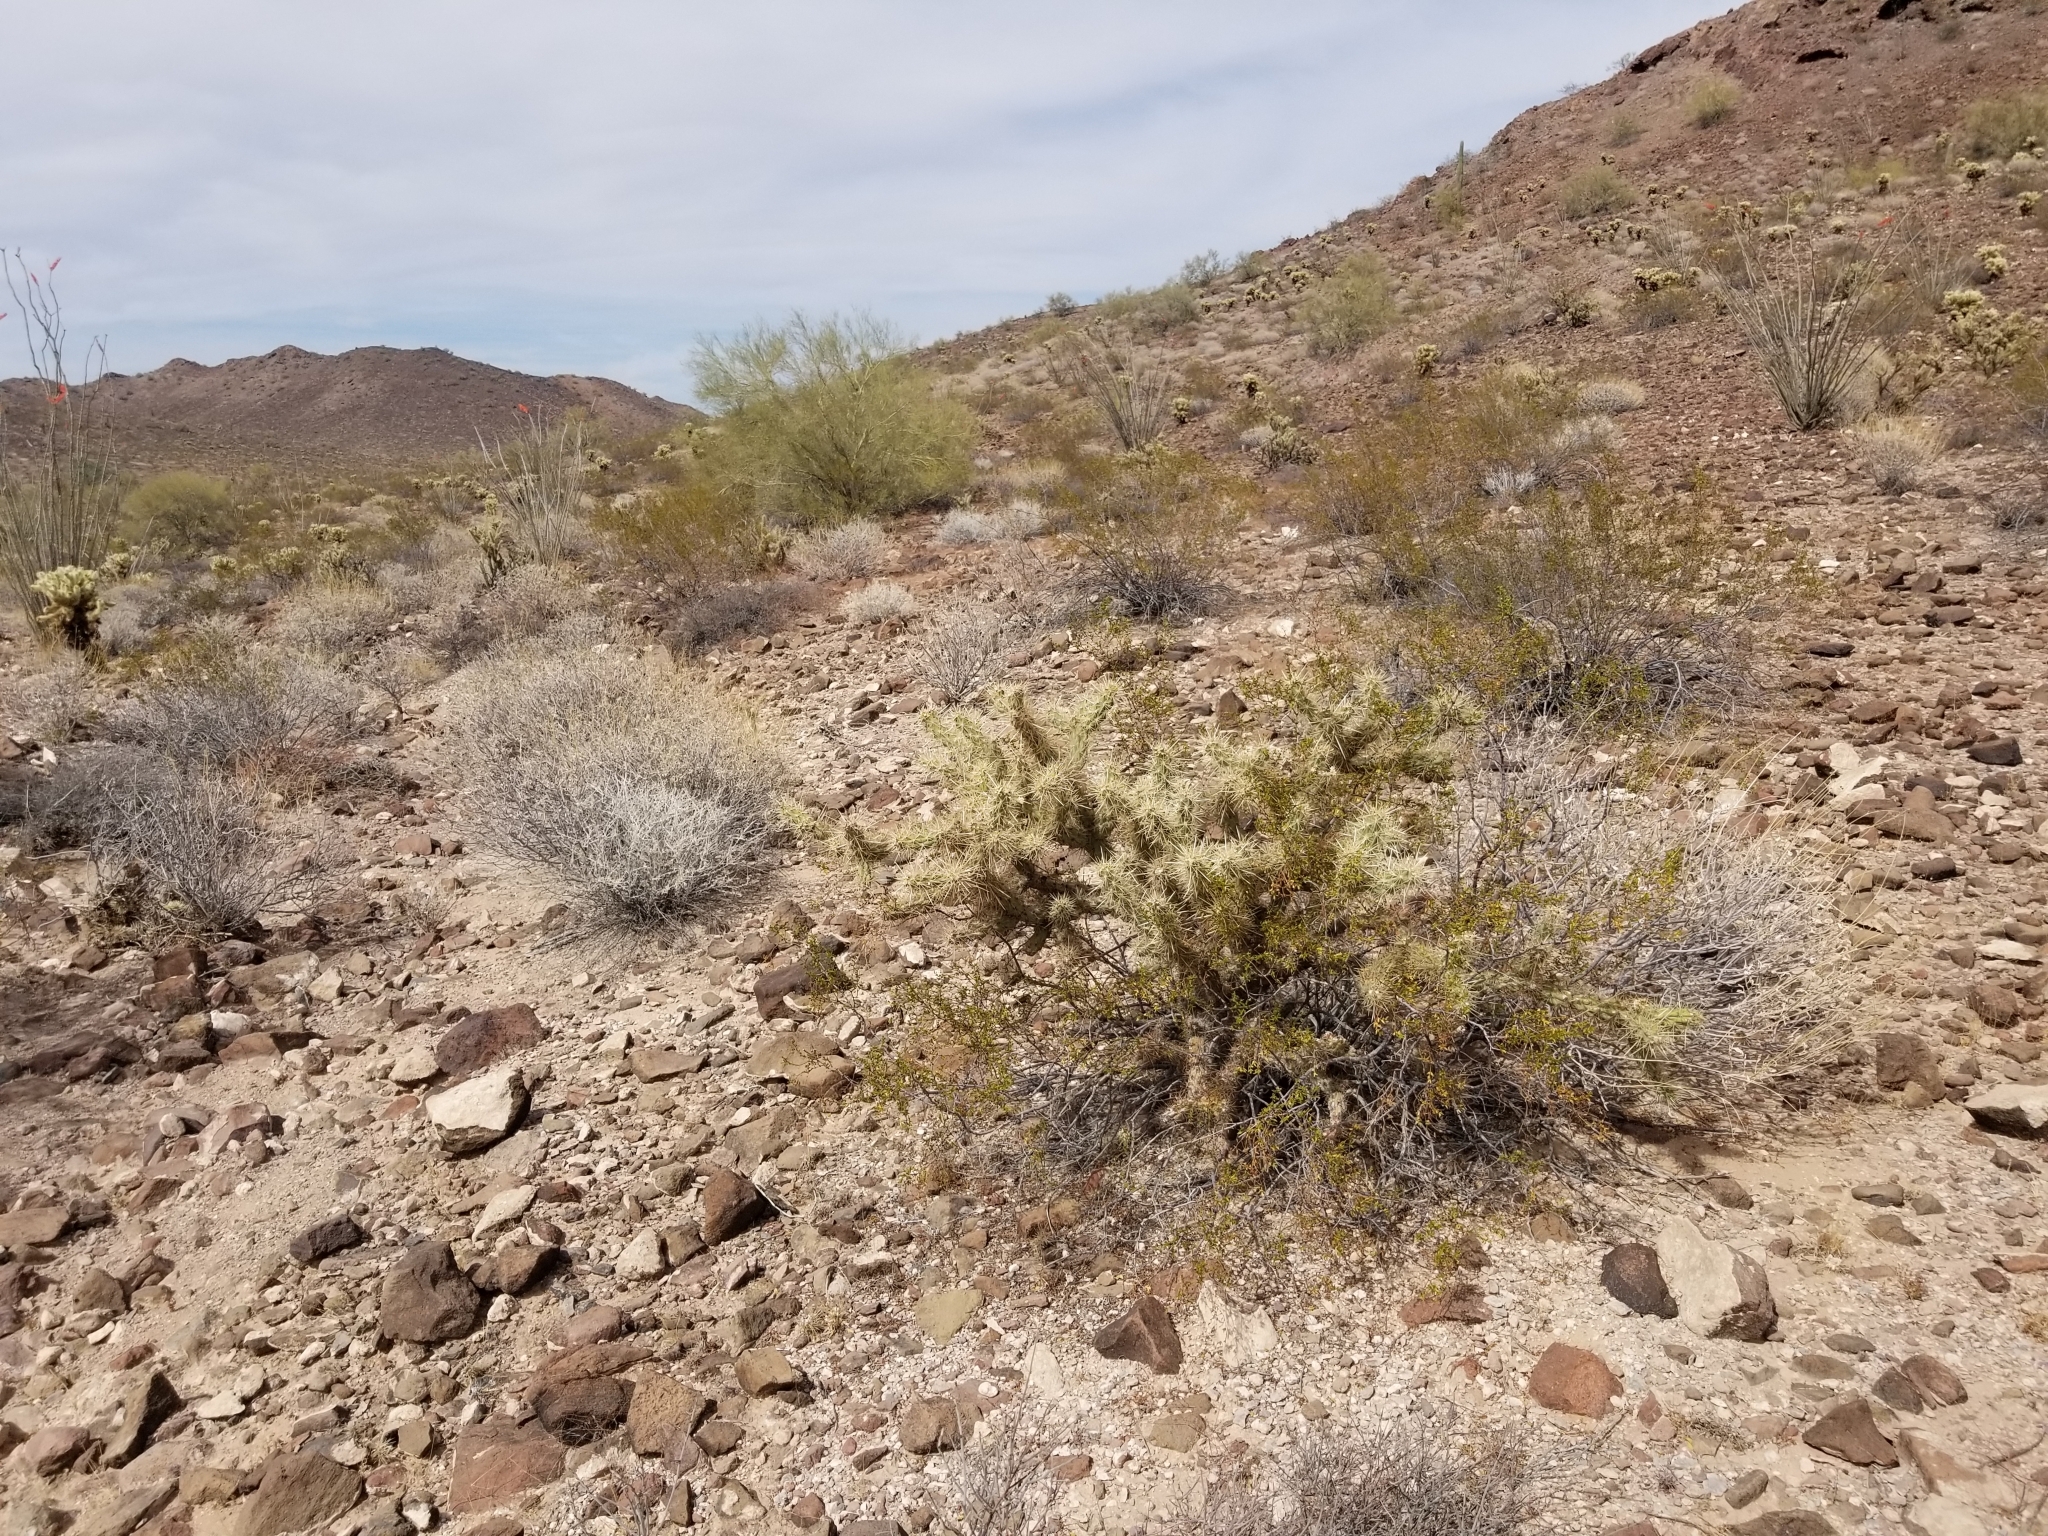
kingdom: Plantae
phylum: Tracheophyta
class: Magnoliopsida
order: Caryophyllales
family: Cactaceae
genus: Cylindropuntia
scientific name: Cylindropuntia acanthocarpa
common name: Buckhorn cholla
